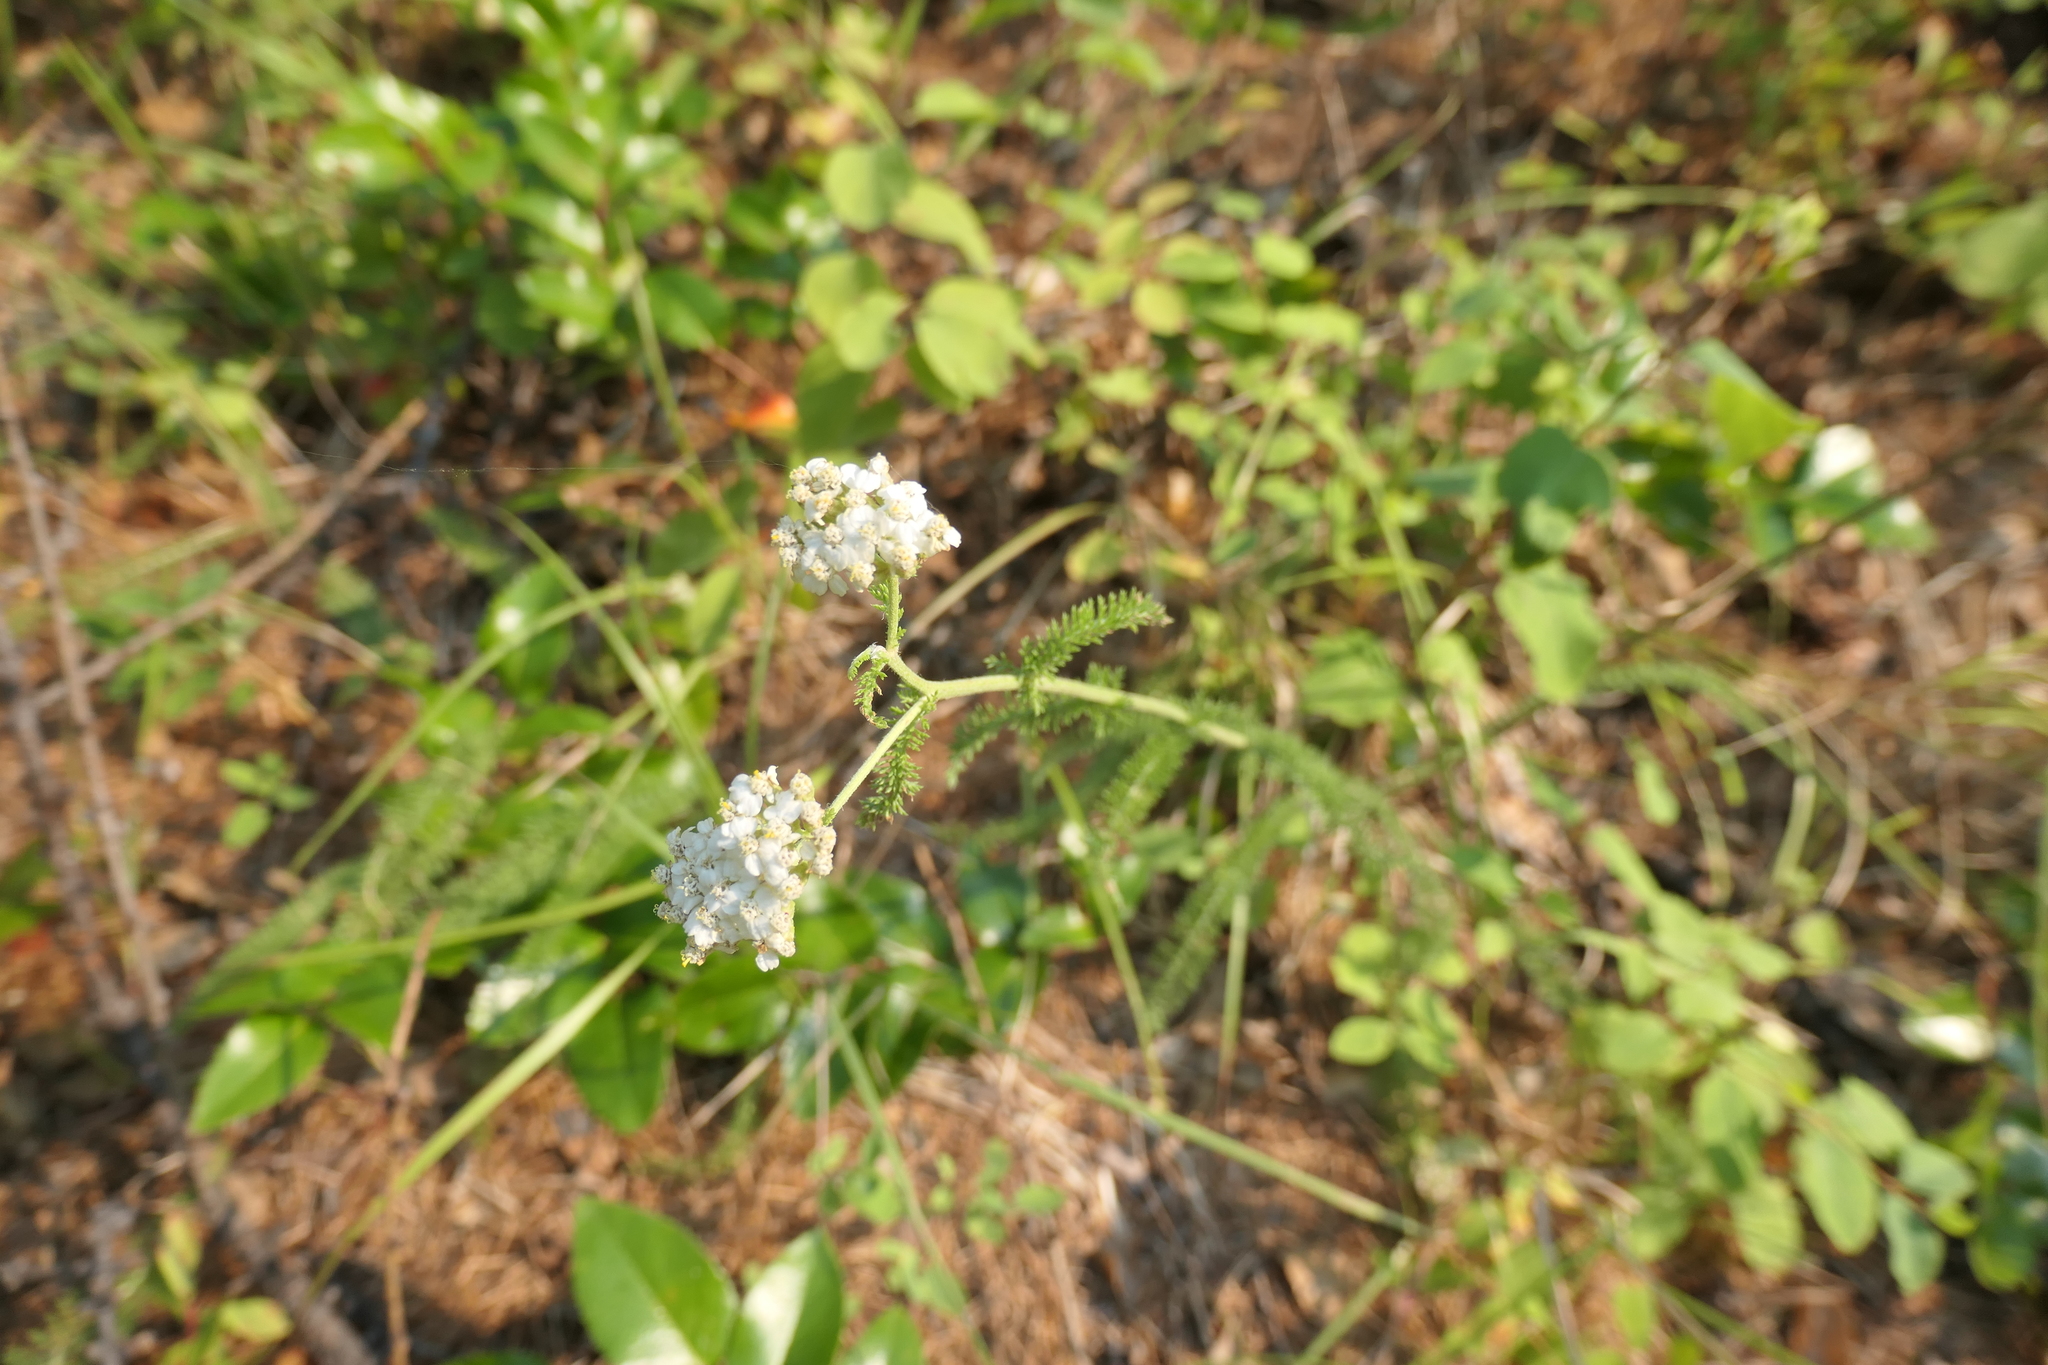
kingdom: Plantae
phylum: Tracheophyta
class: Magnoliopsida
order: Asterales
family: Asteraceae
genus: Achillea
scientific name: Achillea millefolium
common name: Yarrow
